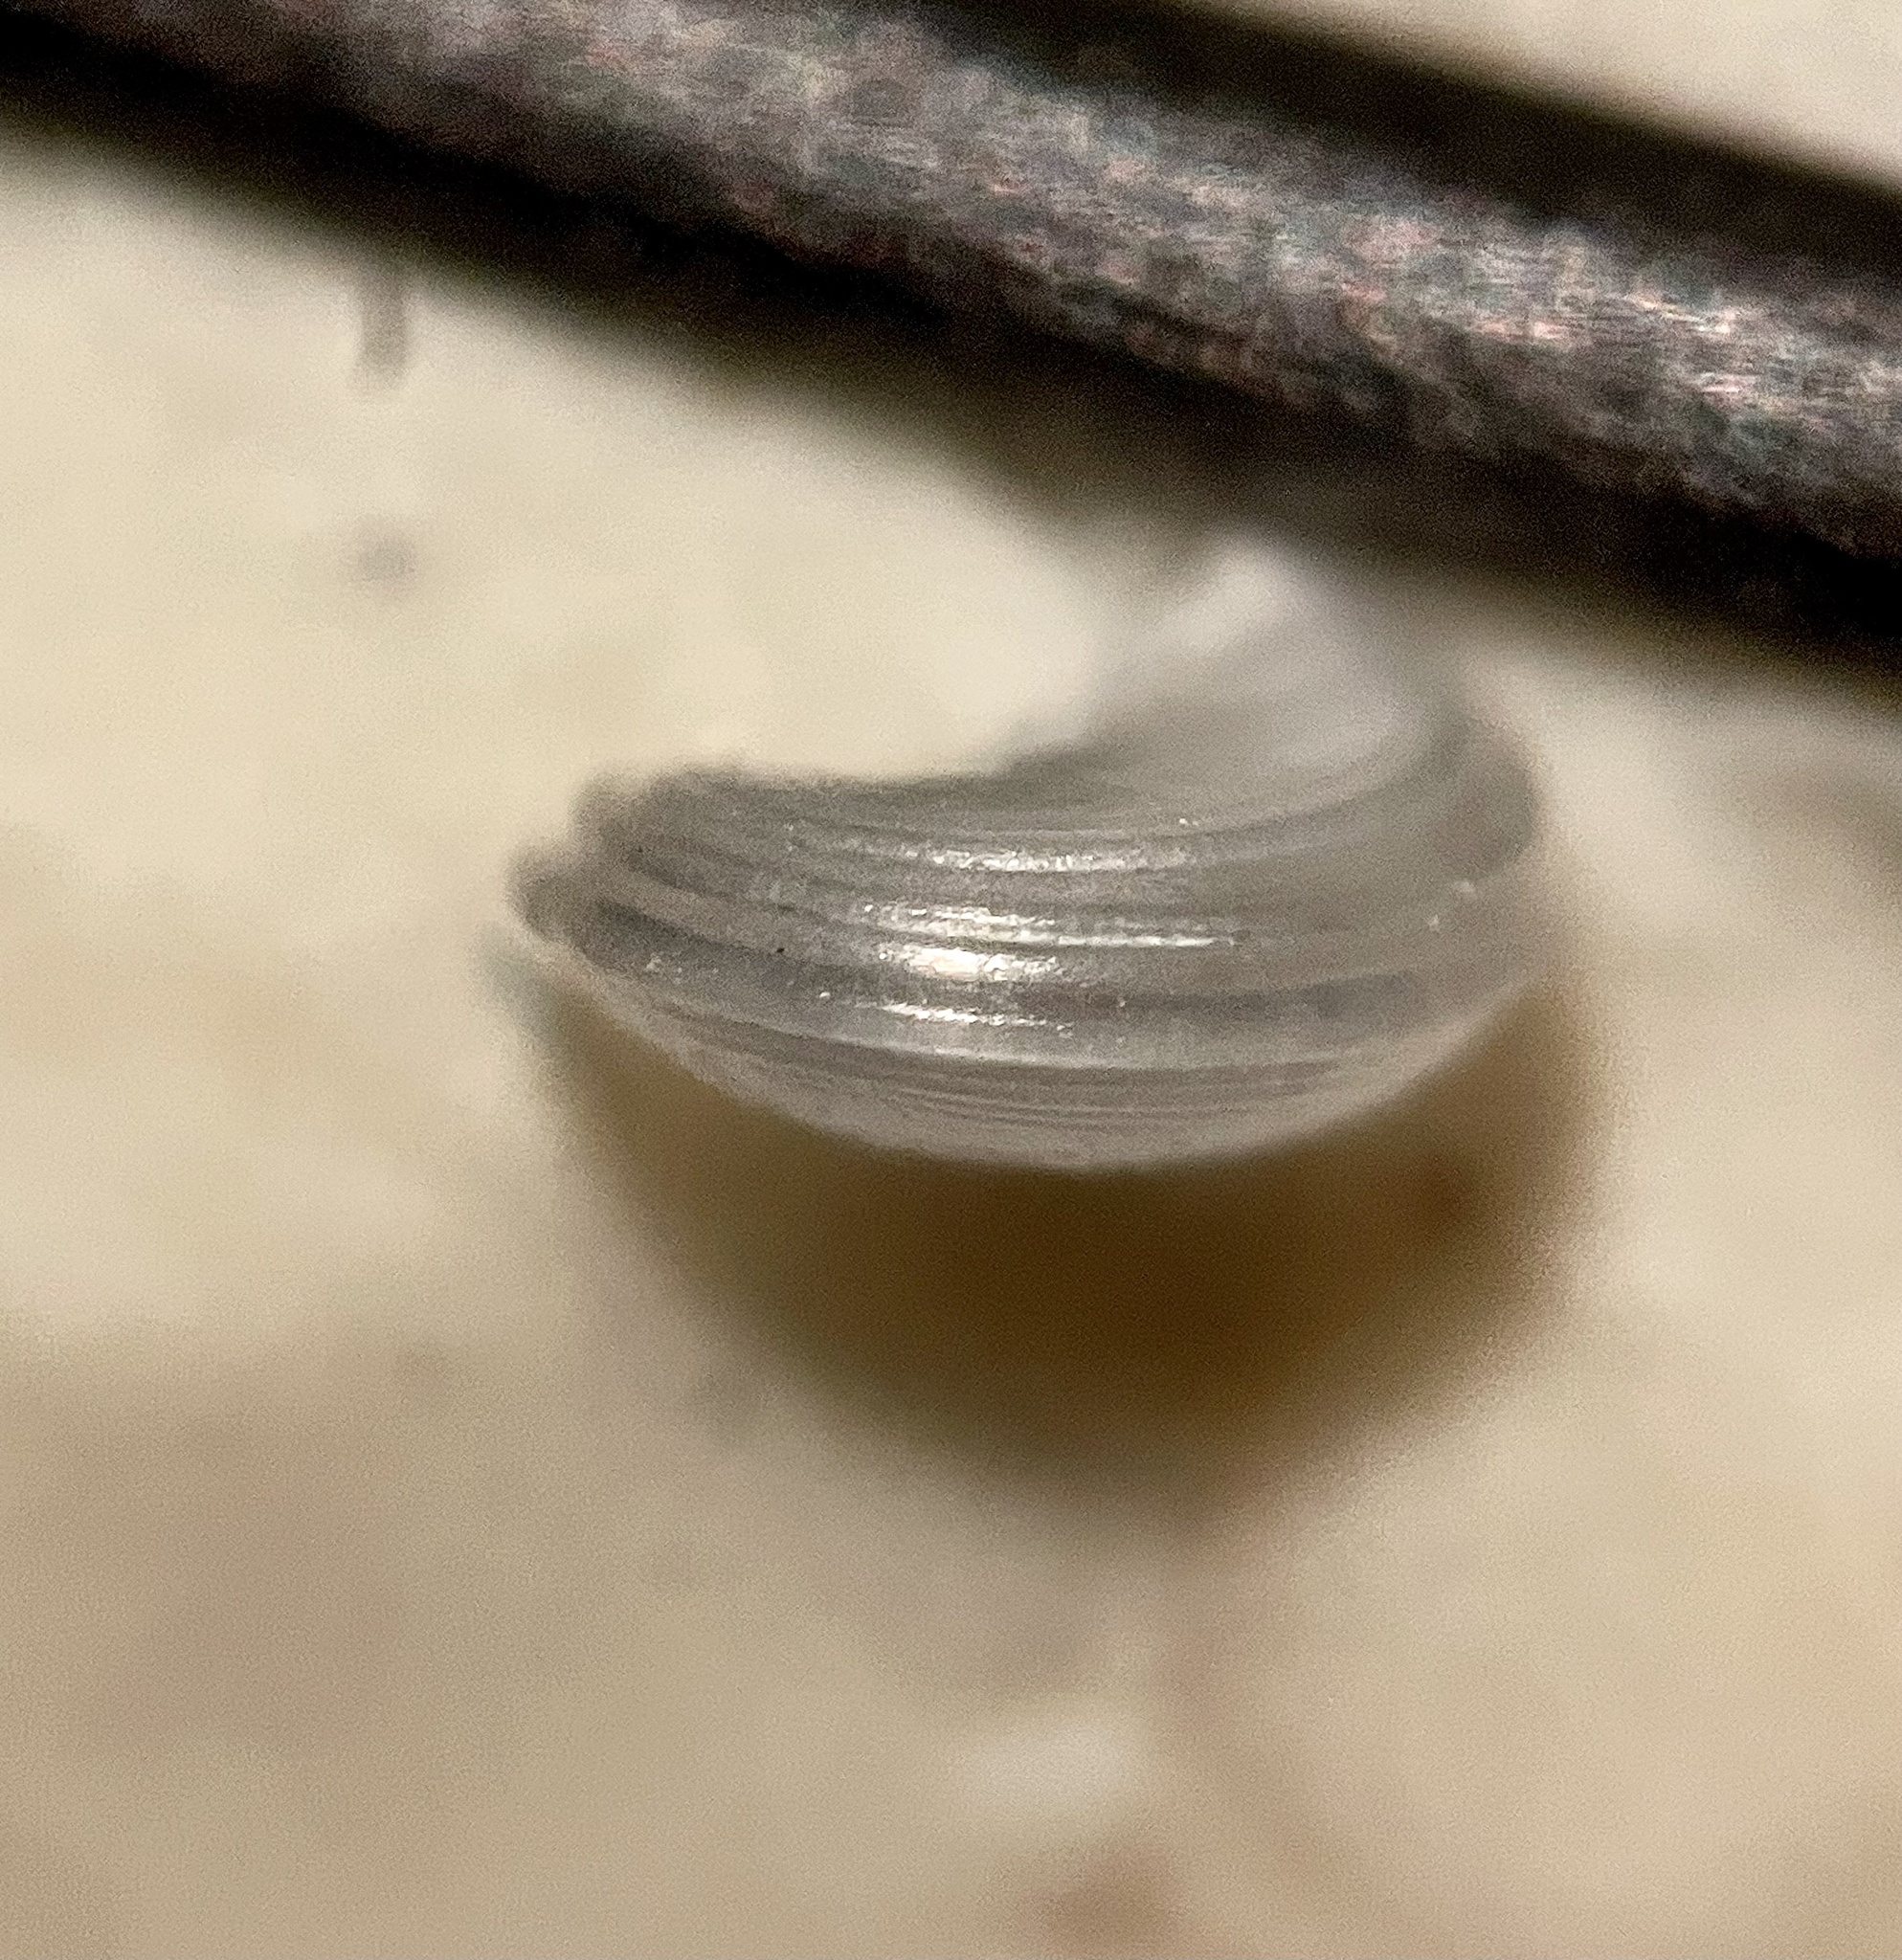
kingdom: Animalia
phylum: Mollusca
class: Gastropoda
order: Littorinimorpha
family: Tornidae
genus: Solariorbis
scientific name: Solariorbis infracarinatus
